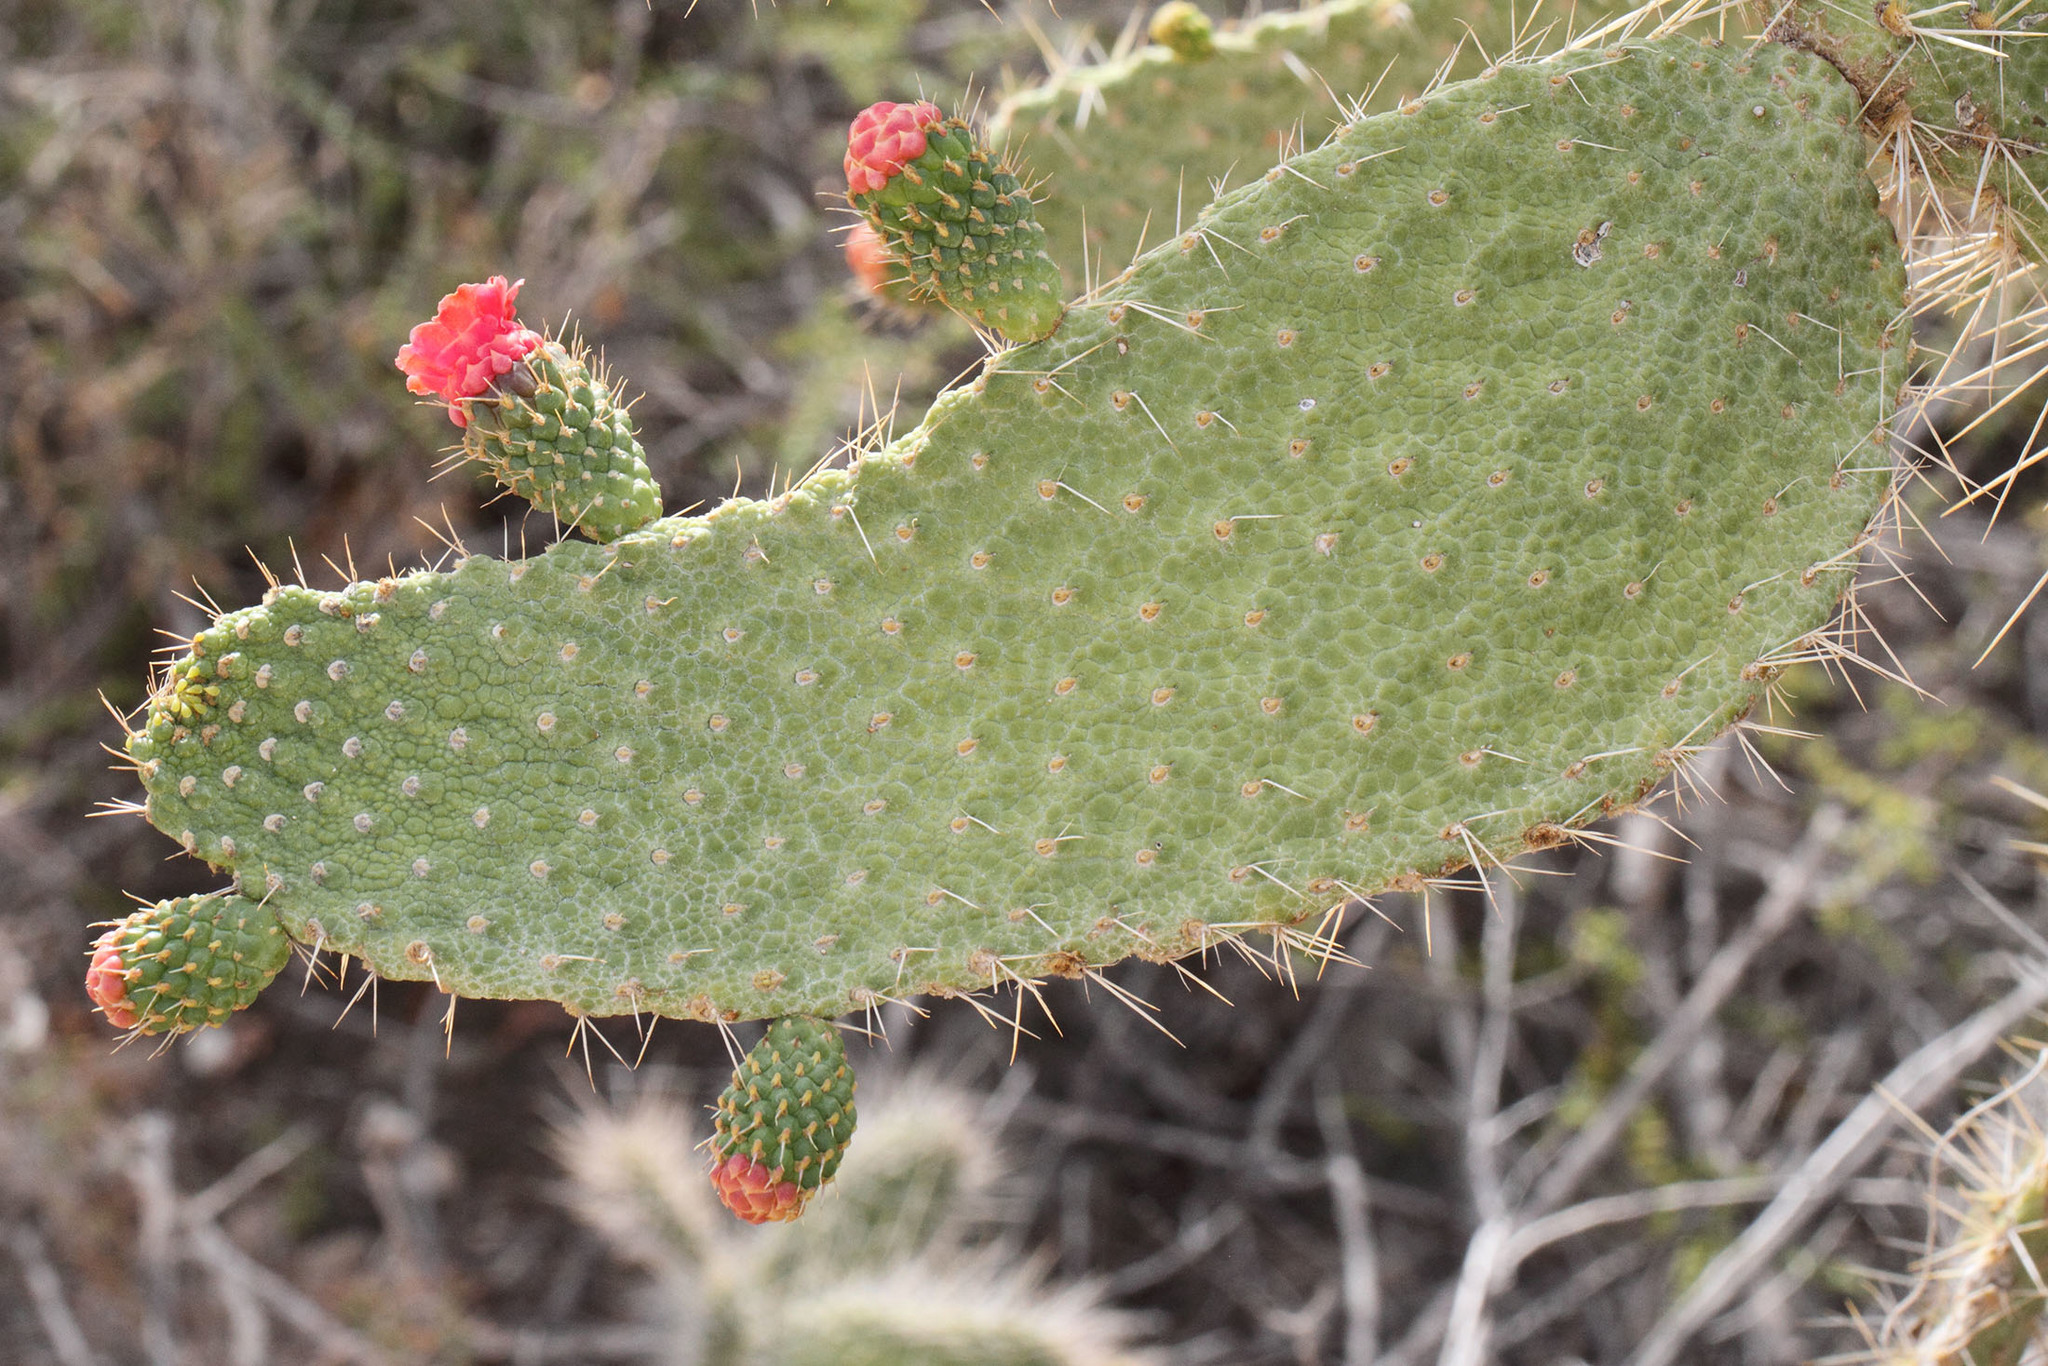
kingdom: Plantae
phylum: Tracheophyta
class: Magnoliopsida
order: Caryophyllales
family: Cactaceae
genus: Consolea
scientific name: Consolea moniliformis
